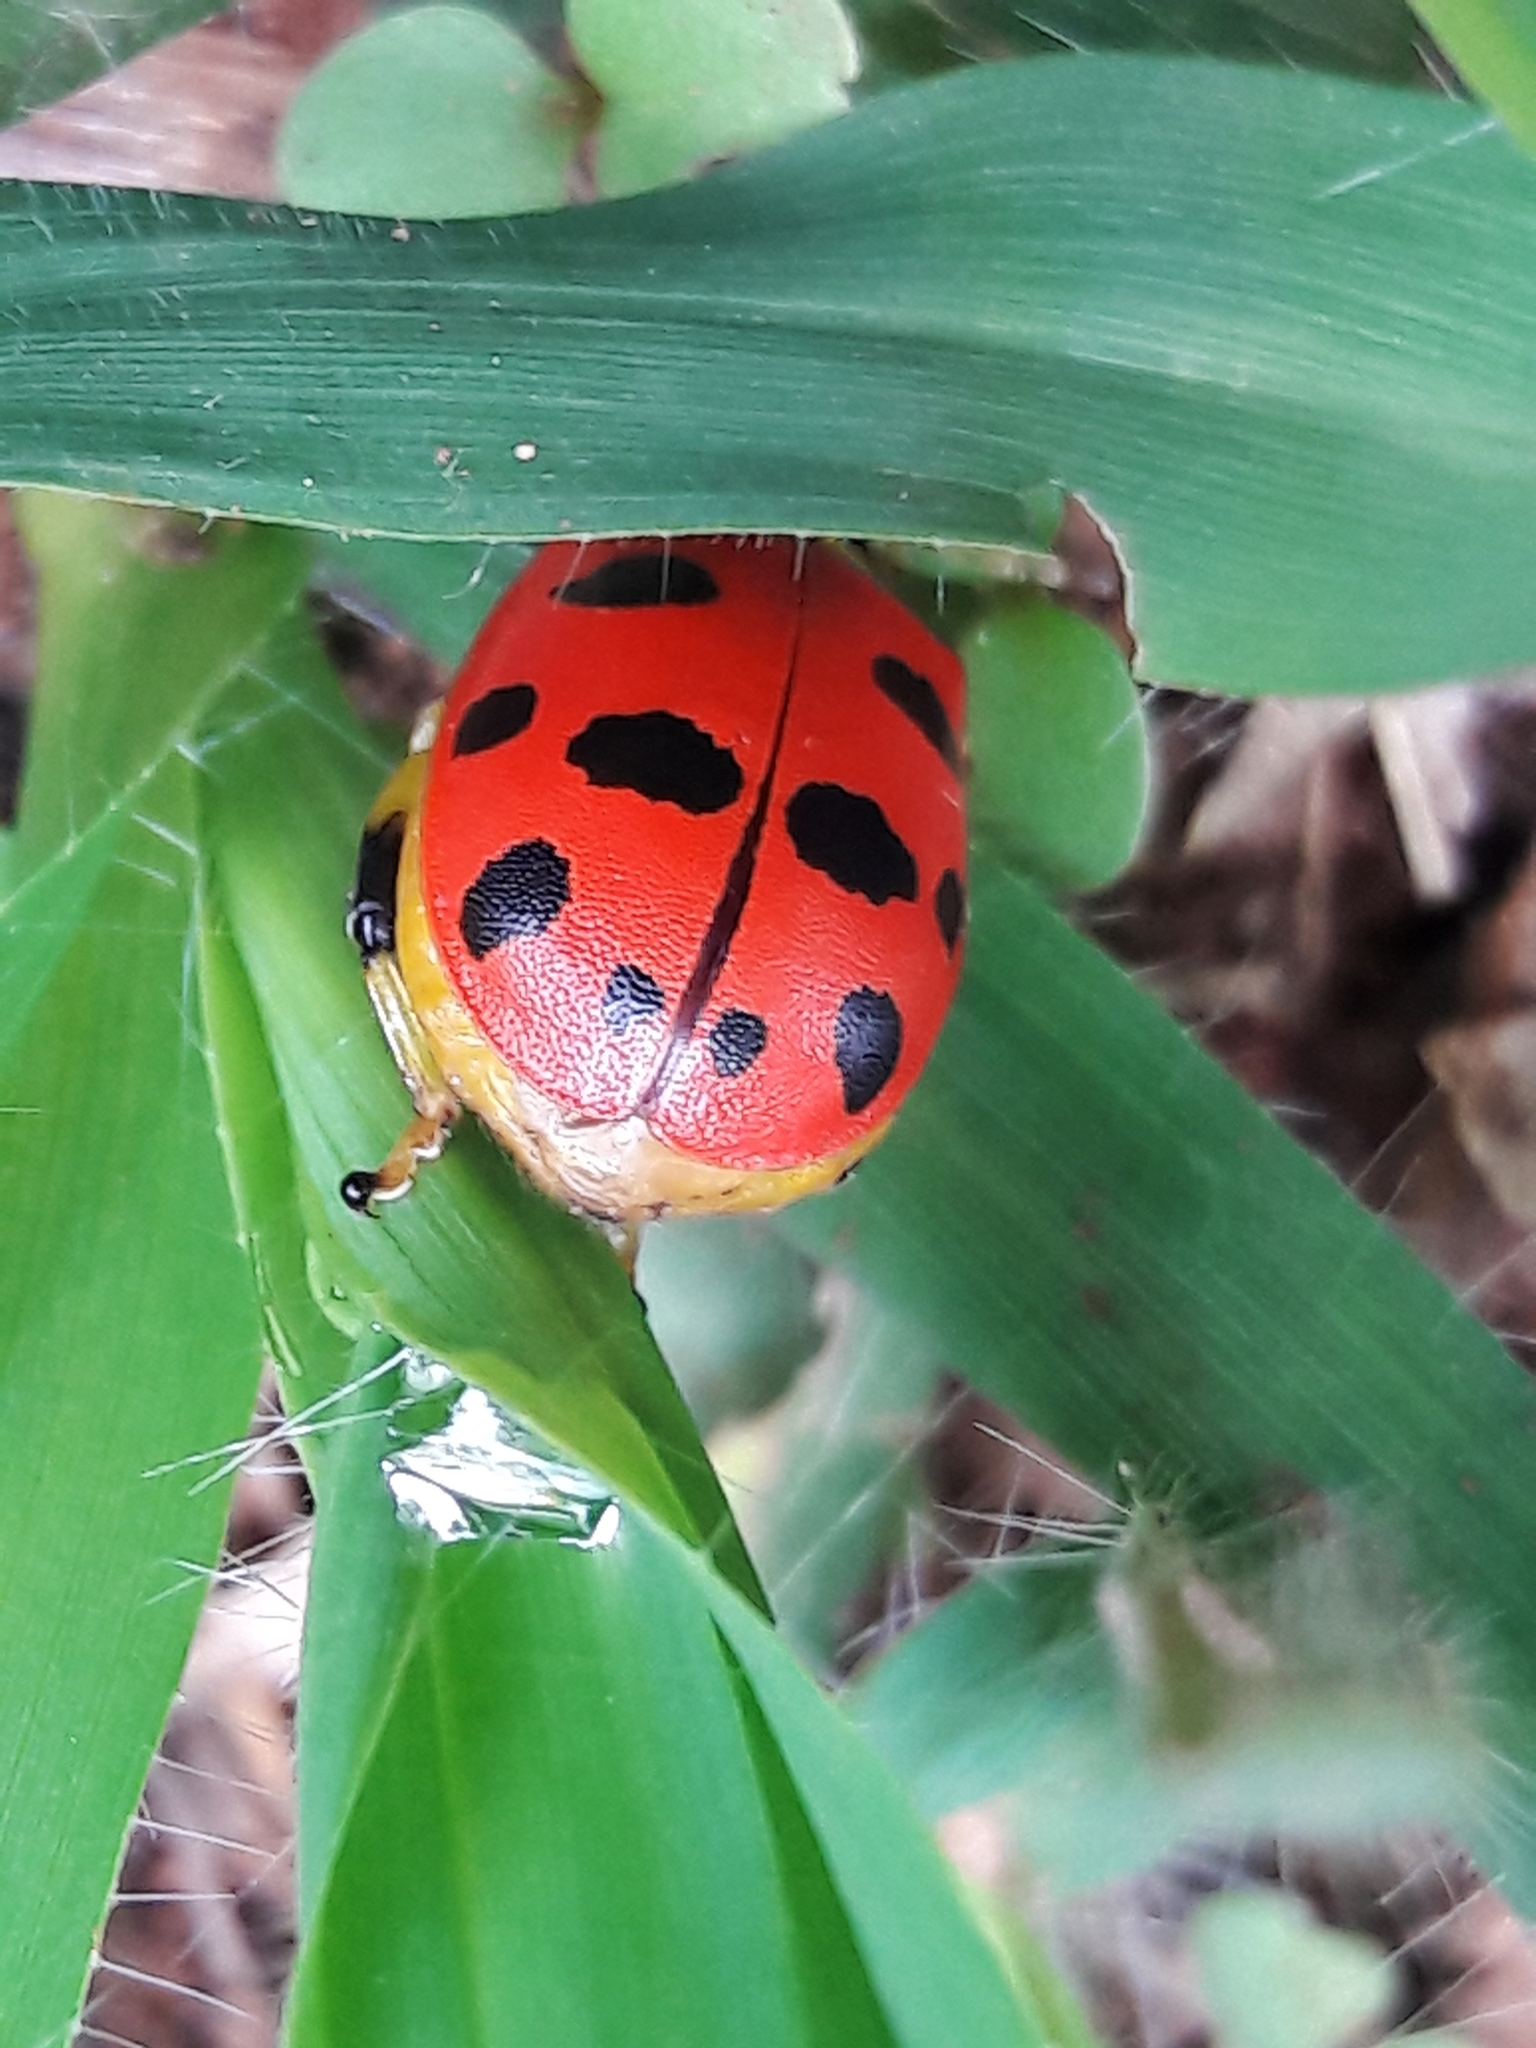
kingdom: Animalia
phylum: Arthropoda
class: Insecta
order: Coleoptera
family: Chrysomelidae
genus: Alagoasa
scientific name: Alagoasa
